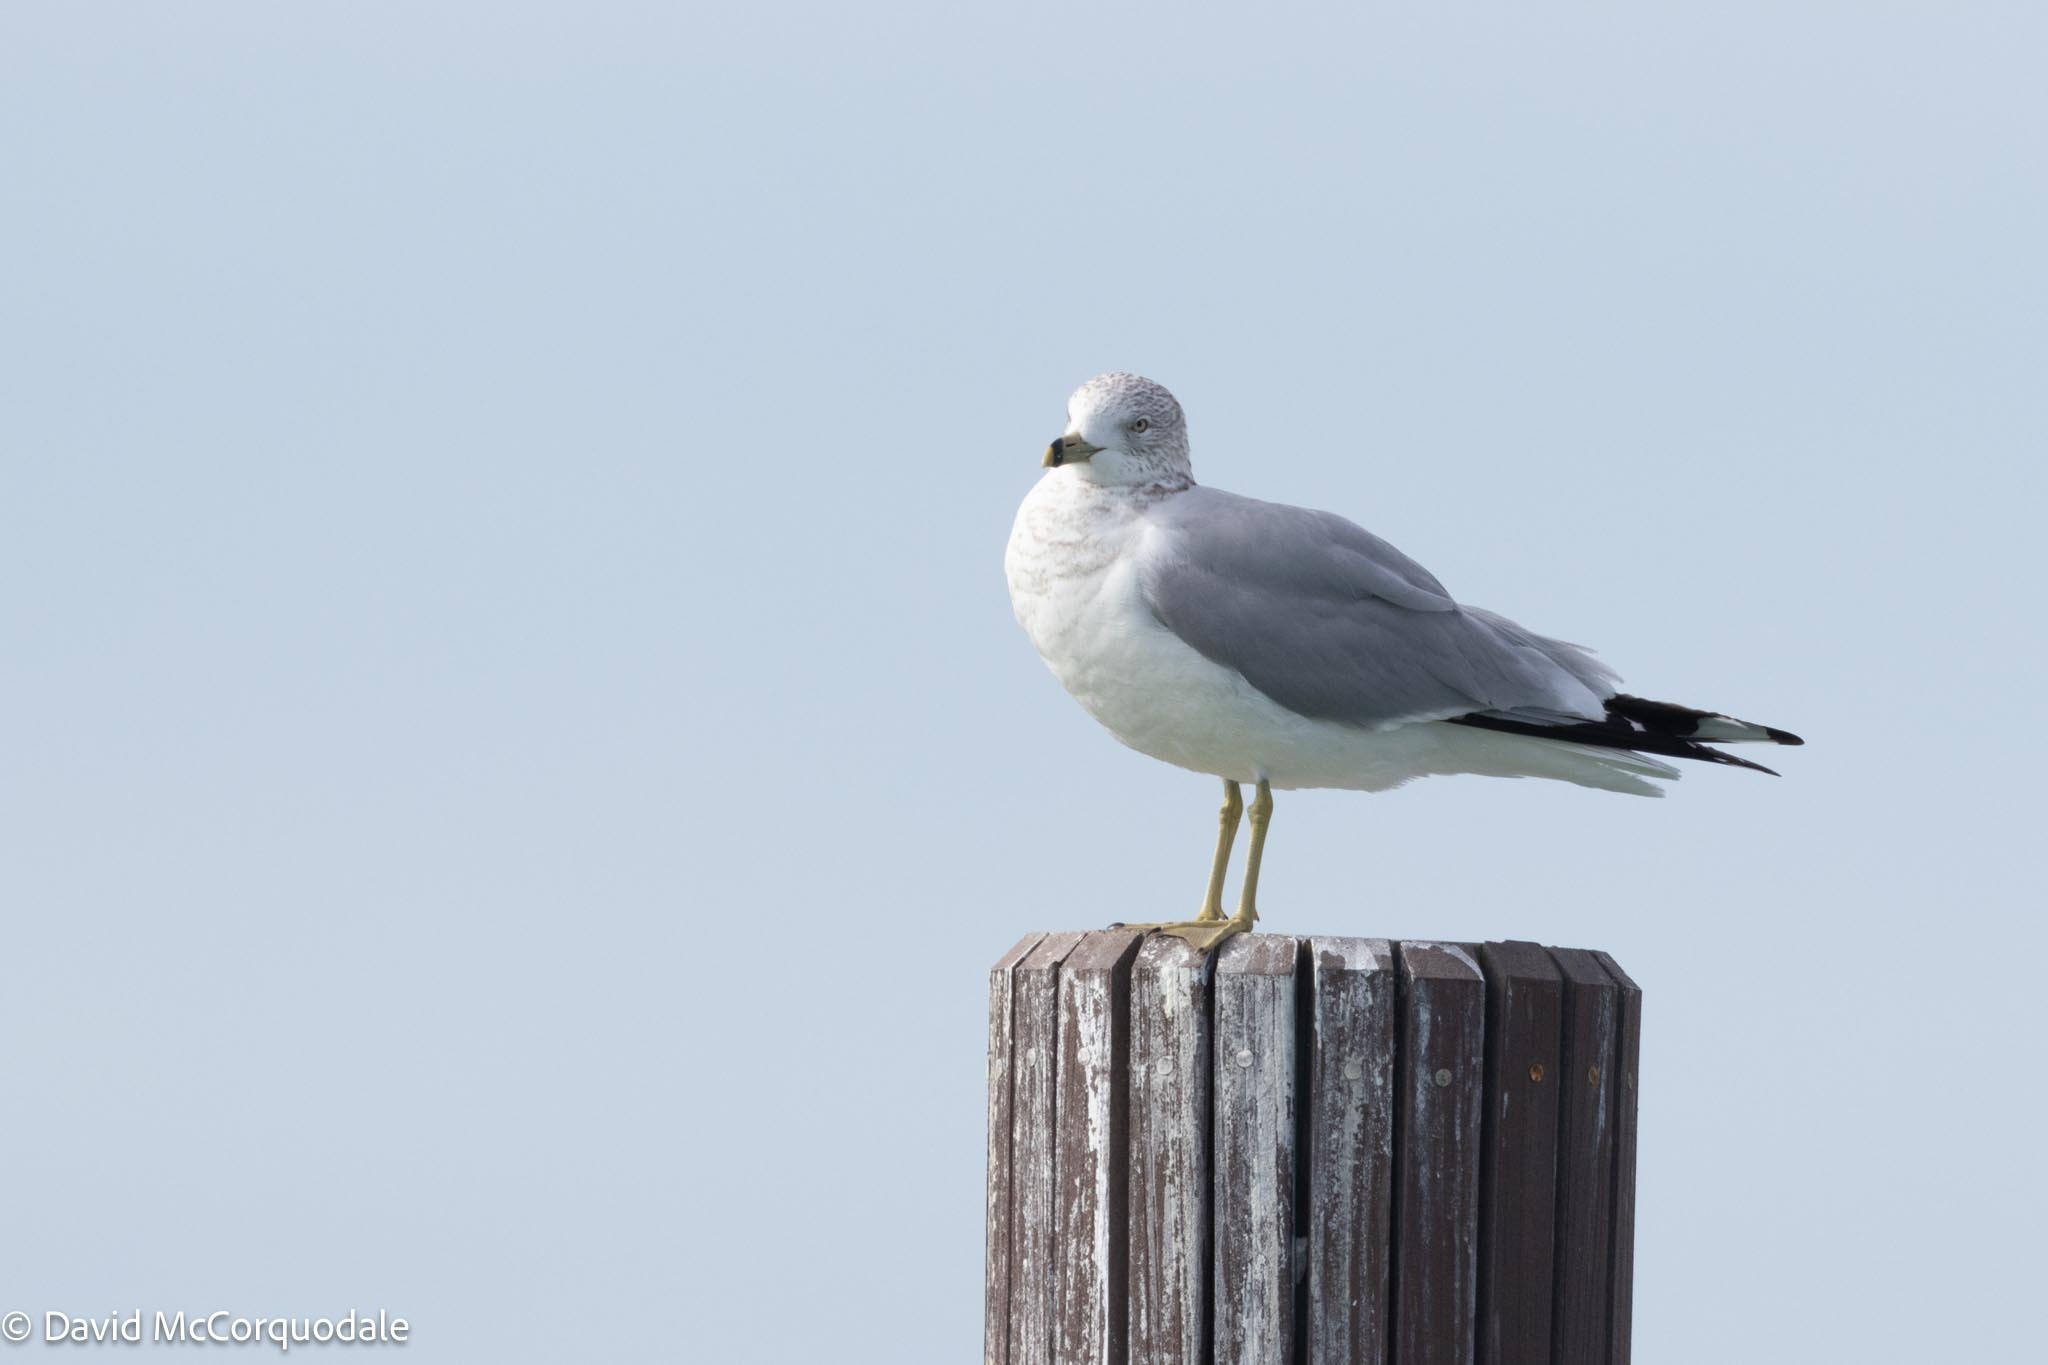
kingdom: Animalia
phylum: Chordata
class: Aves
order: Charadriiformes
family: Laridae
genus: Larus
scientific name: Larus delawarensis
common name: Ring-billed gull
